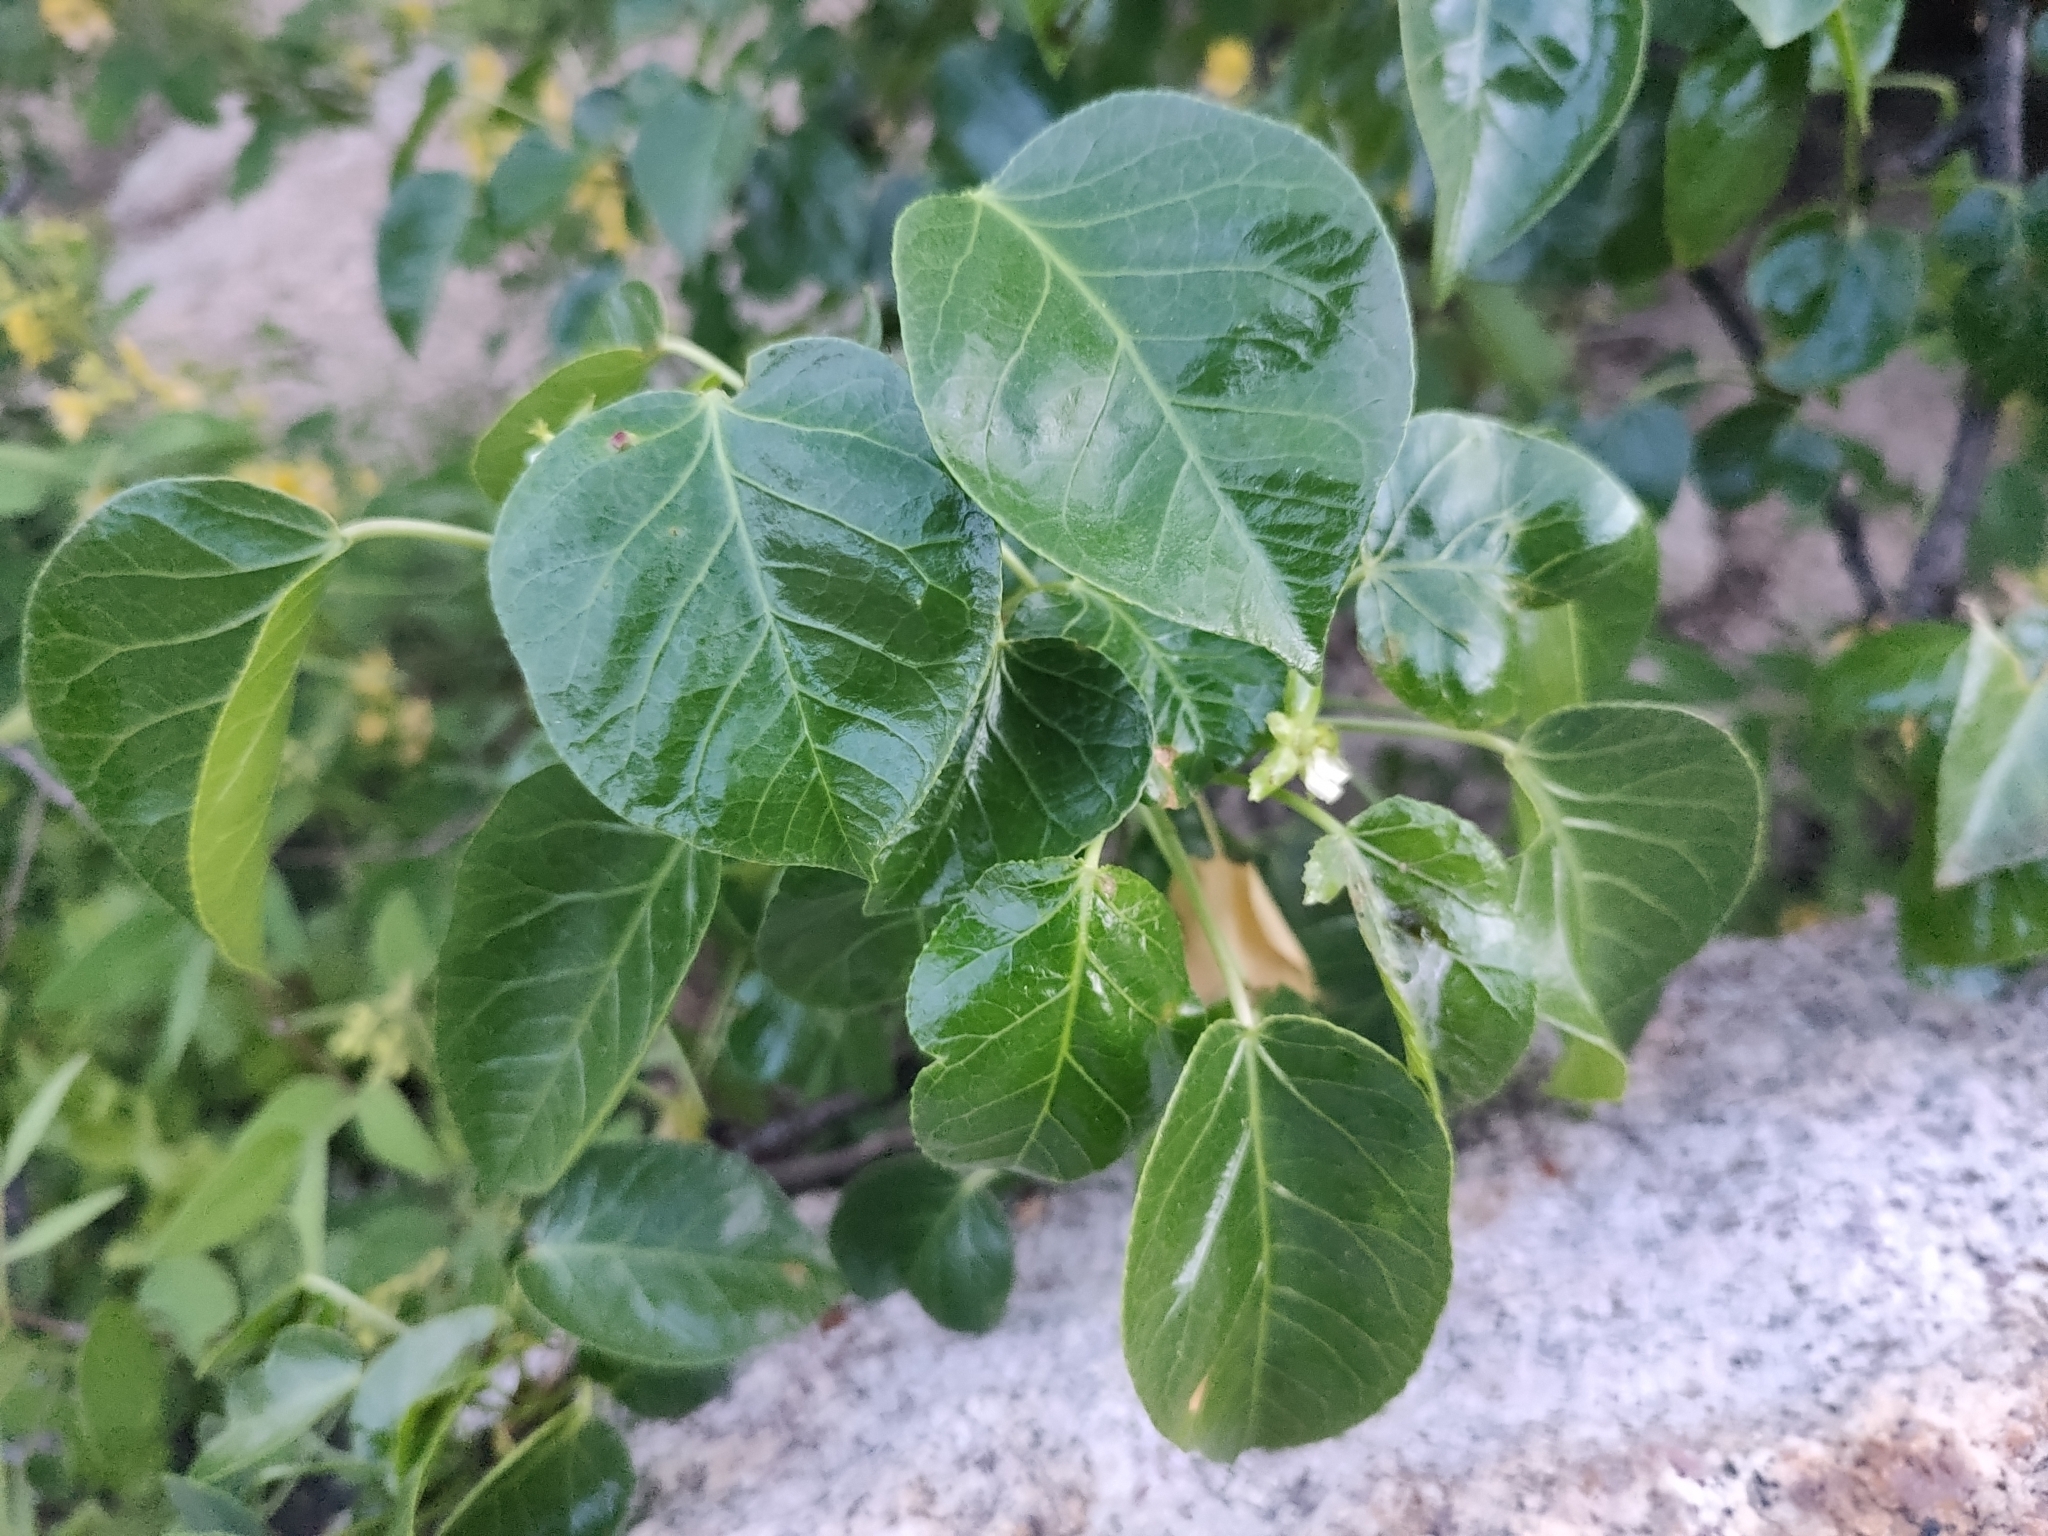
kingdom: Plantae
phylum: Tracheophyta
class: Magnoliopsida
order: Malpighiales
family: Euphorbiaceae
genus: Jatropha
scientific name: Jatropha vernicosa
